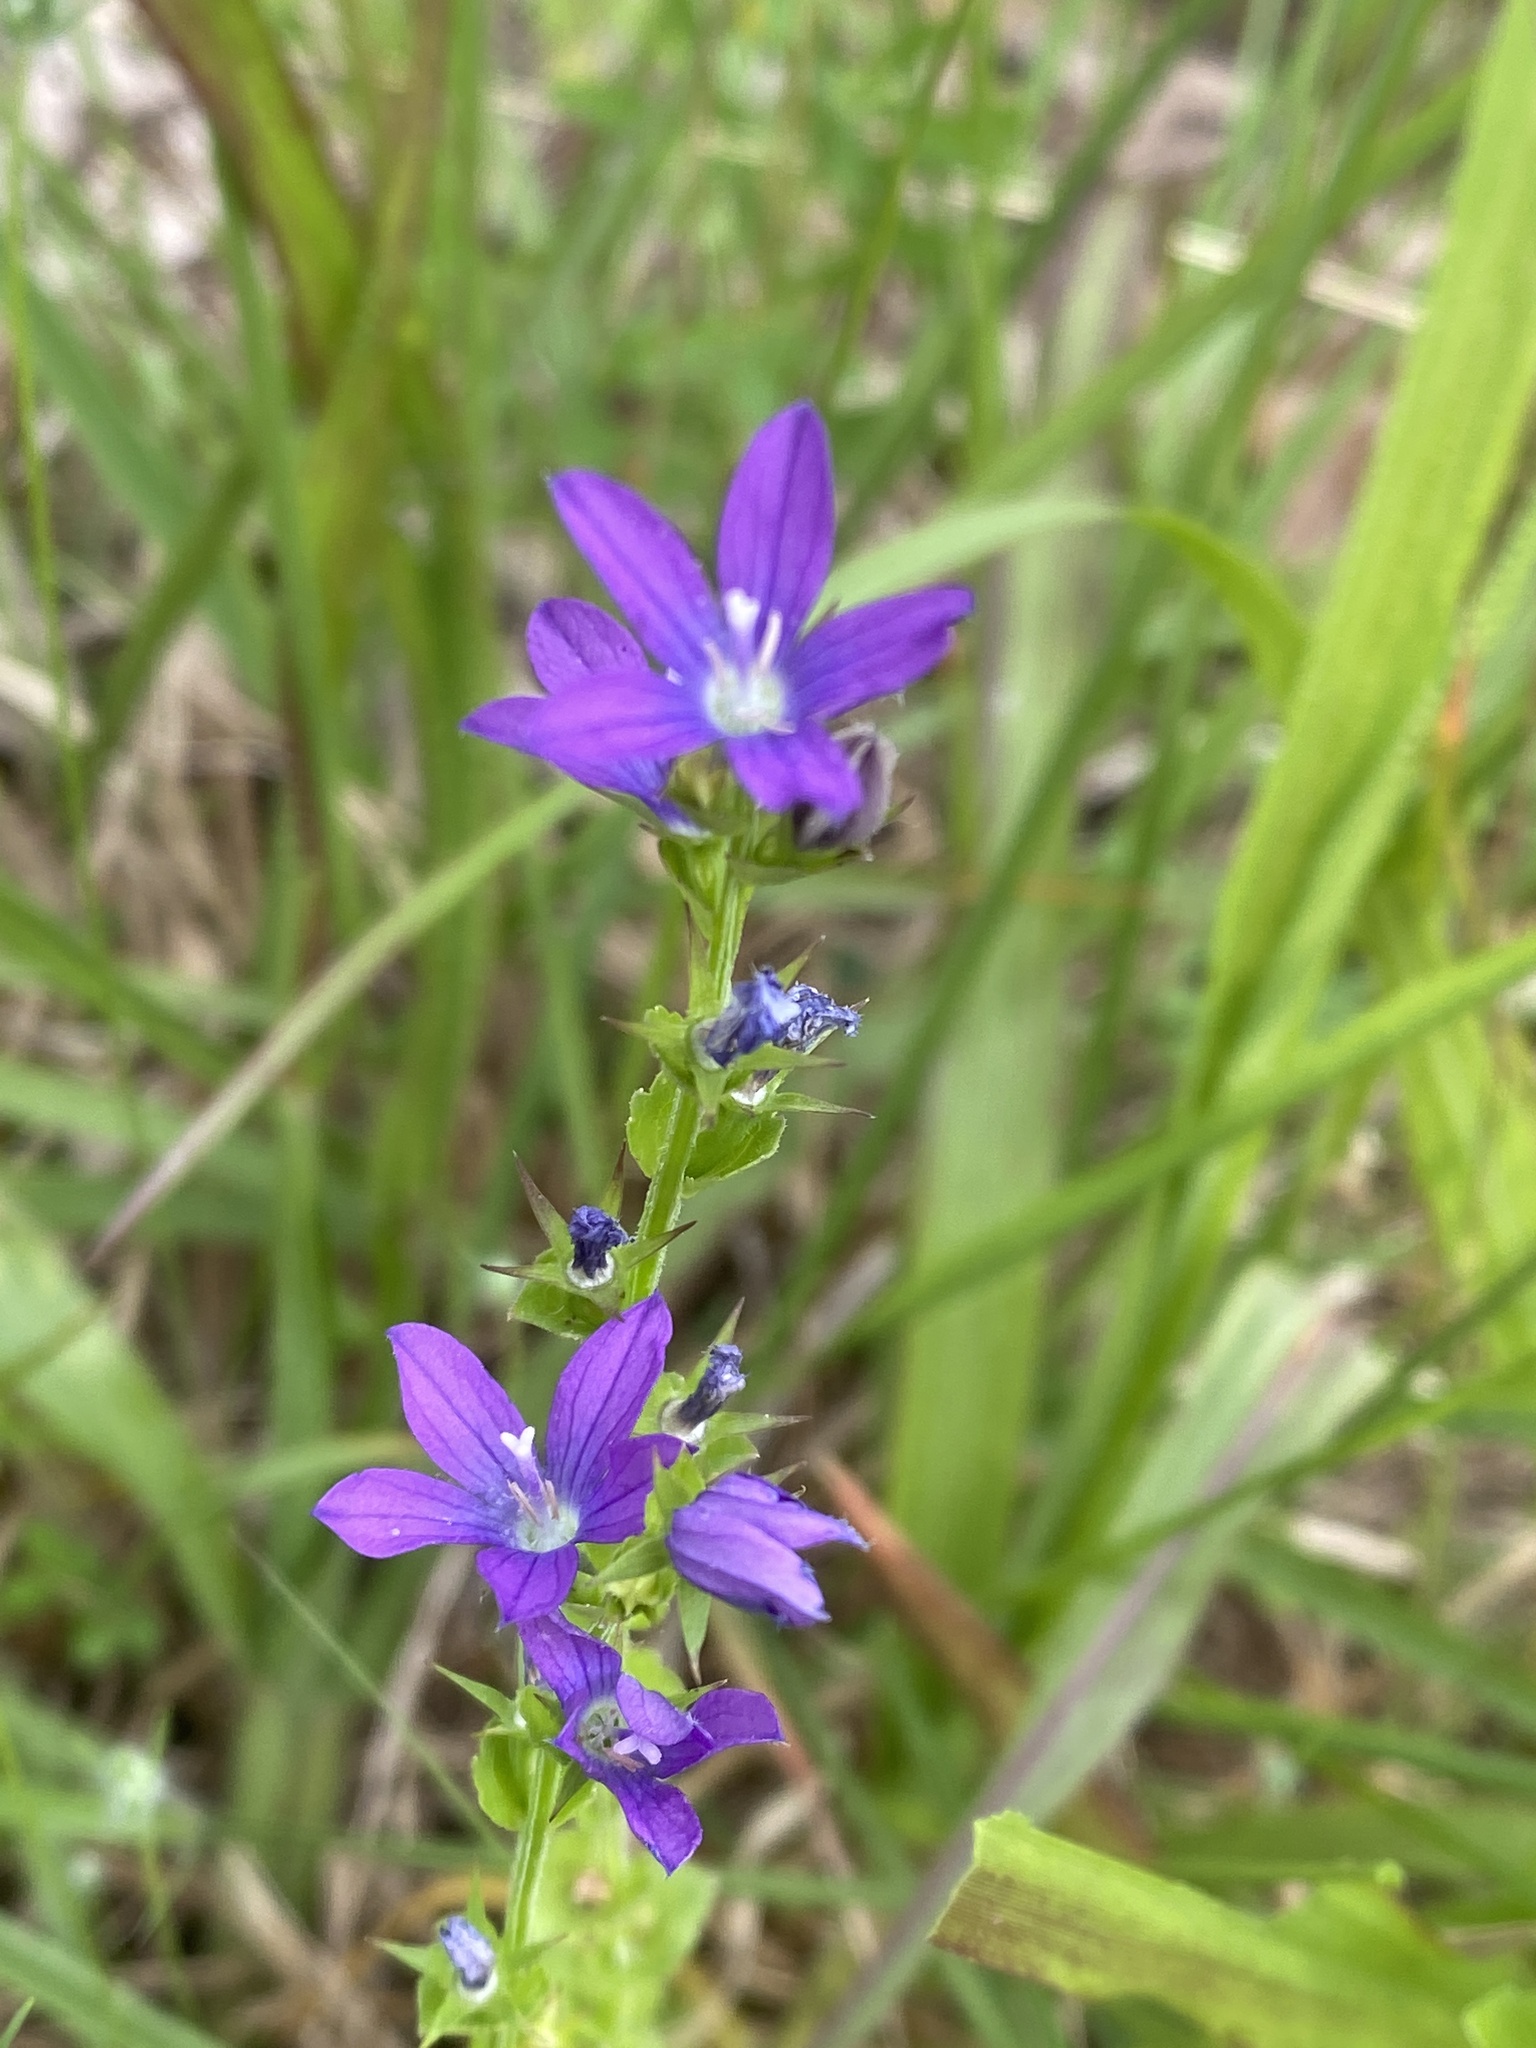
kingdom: Plantae
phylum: Tracheophyta
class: Magnoliopsida
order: Asterales
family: Campanulaceae
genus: Triodanis
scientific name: Triodanis perfoliata
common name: Clasping venus' looking-glass
